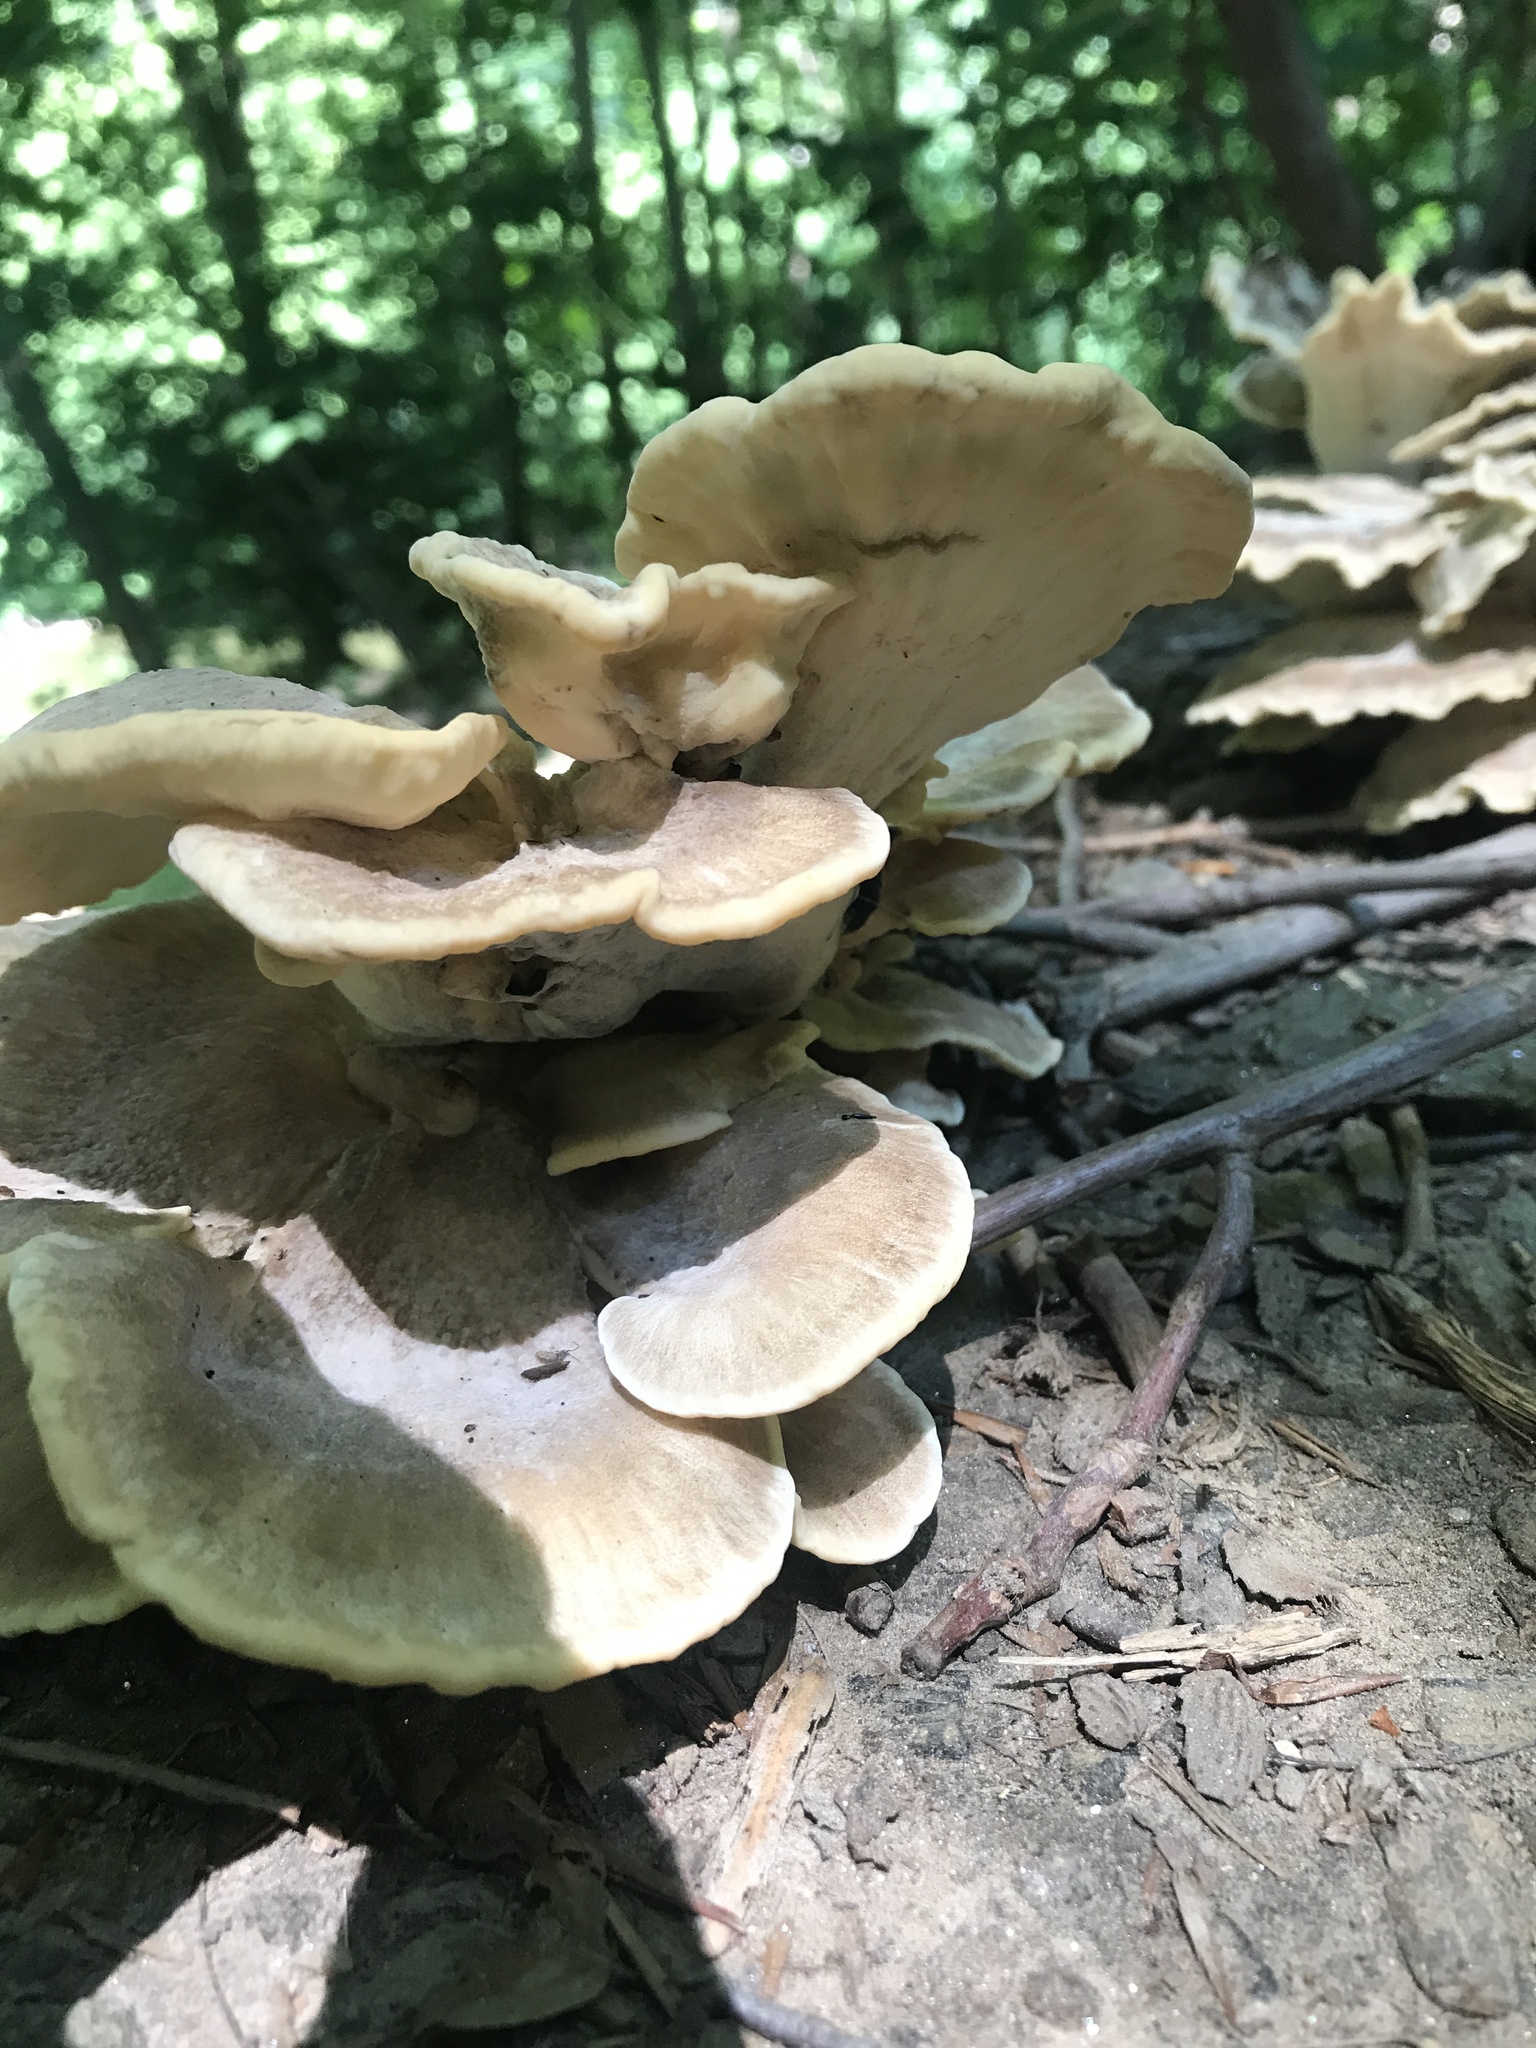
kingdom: Fungi
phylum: Basidiomycota
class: Agaricomycetes
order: Polyporales
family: Meripilaceae
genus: Meripilus
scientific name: Meripilus sumstinei
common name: Black-staining polypore
